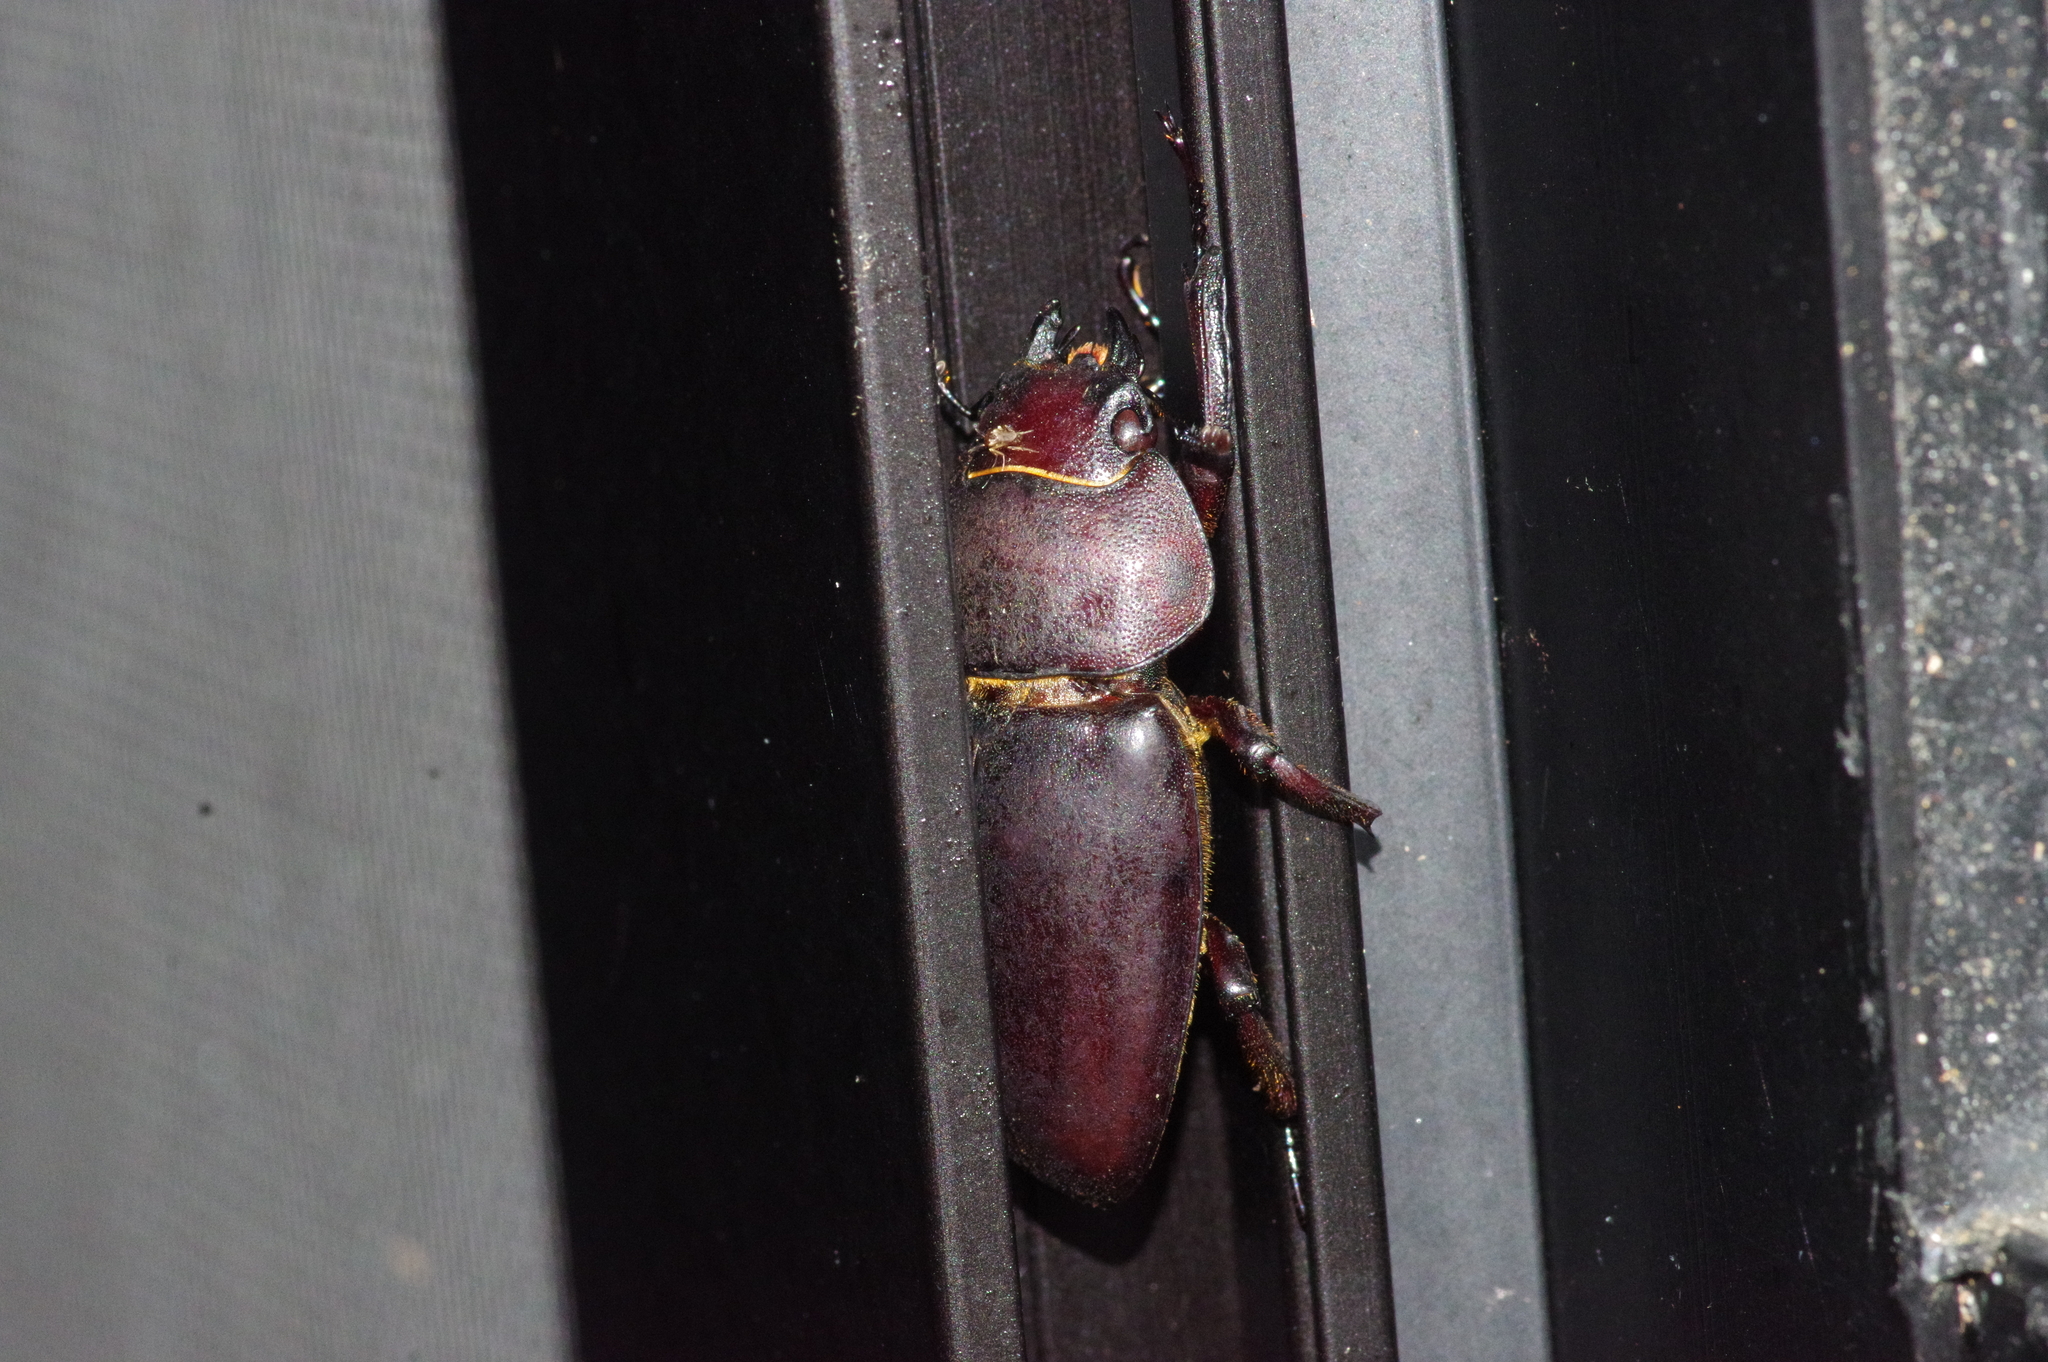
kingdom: Animalia
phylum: Arthropoda
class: Insecta
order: Coleoptera
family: Lucanidae
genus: Prosopocoilus
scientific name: Prosopocoilus dissimilis
